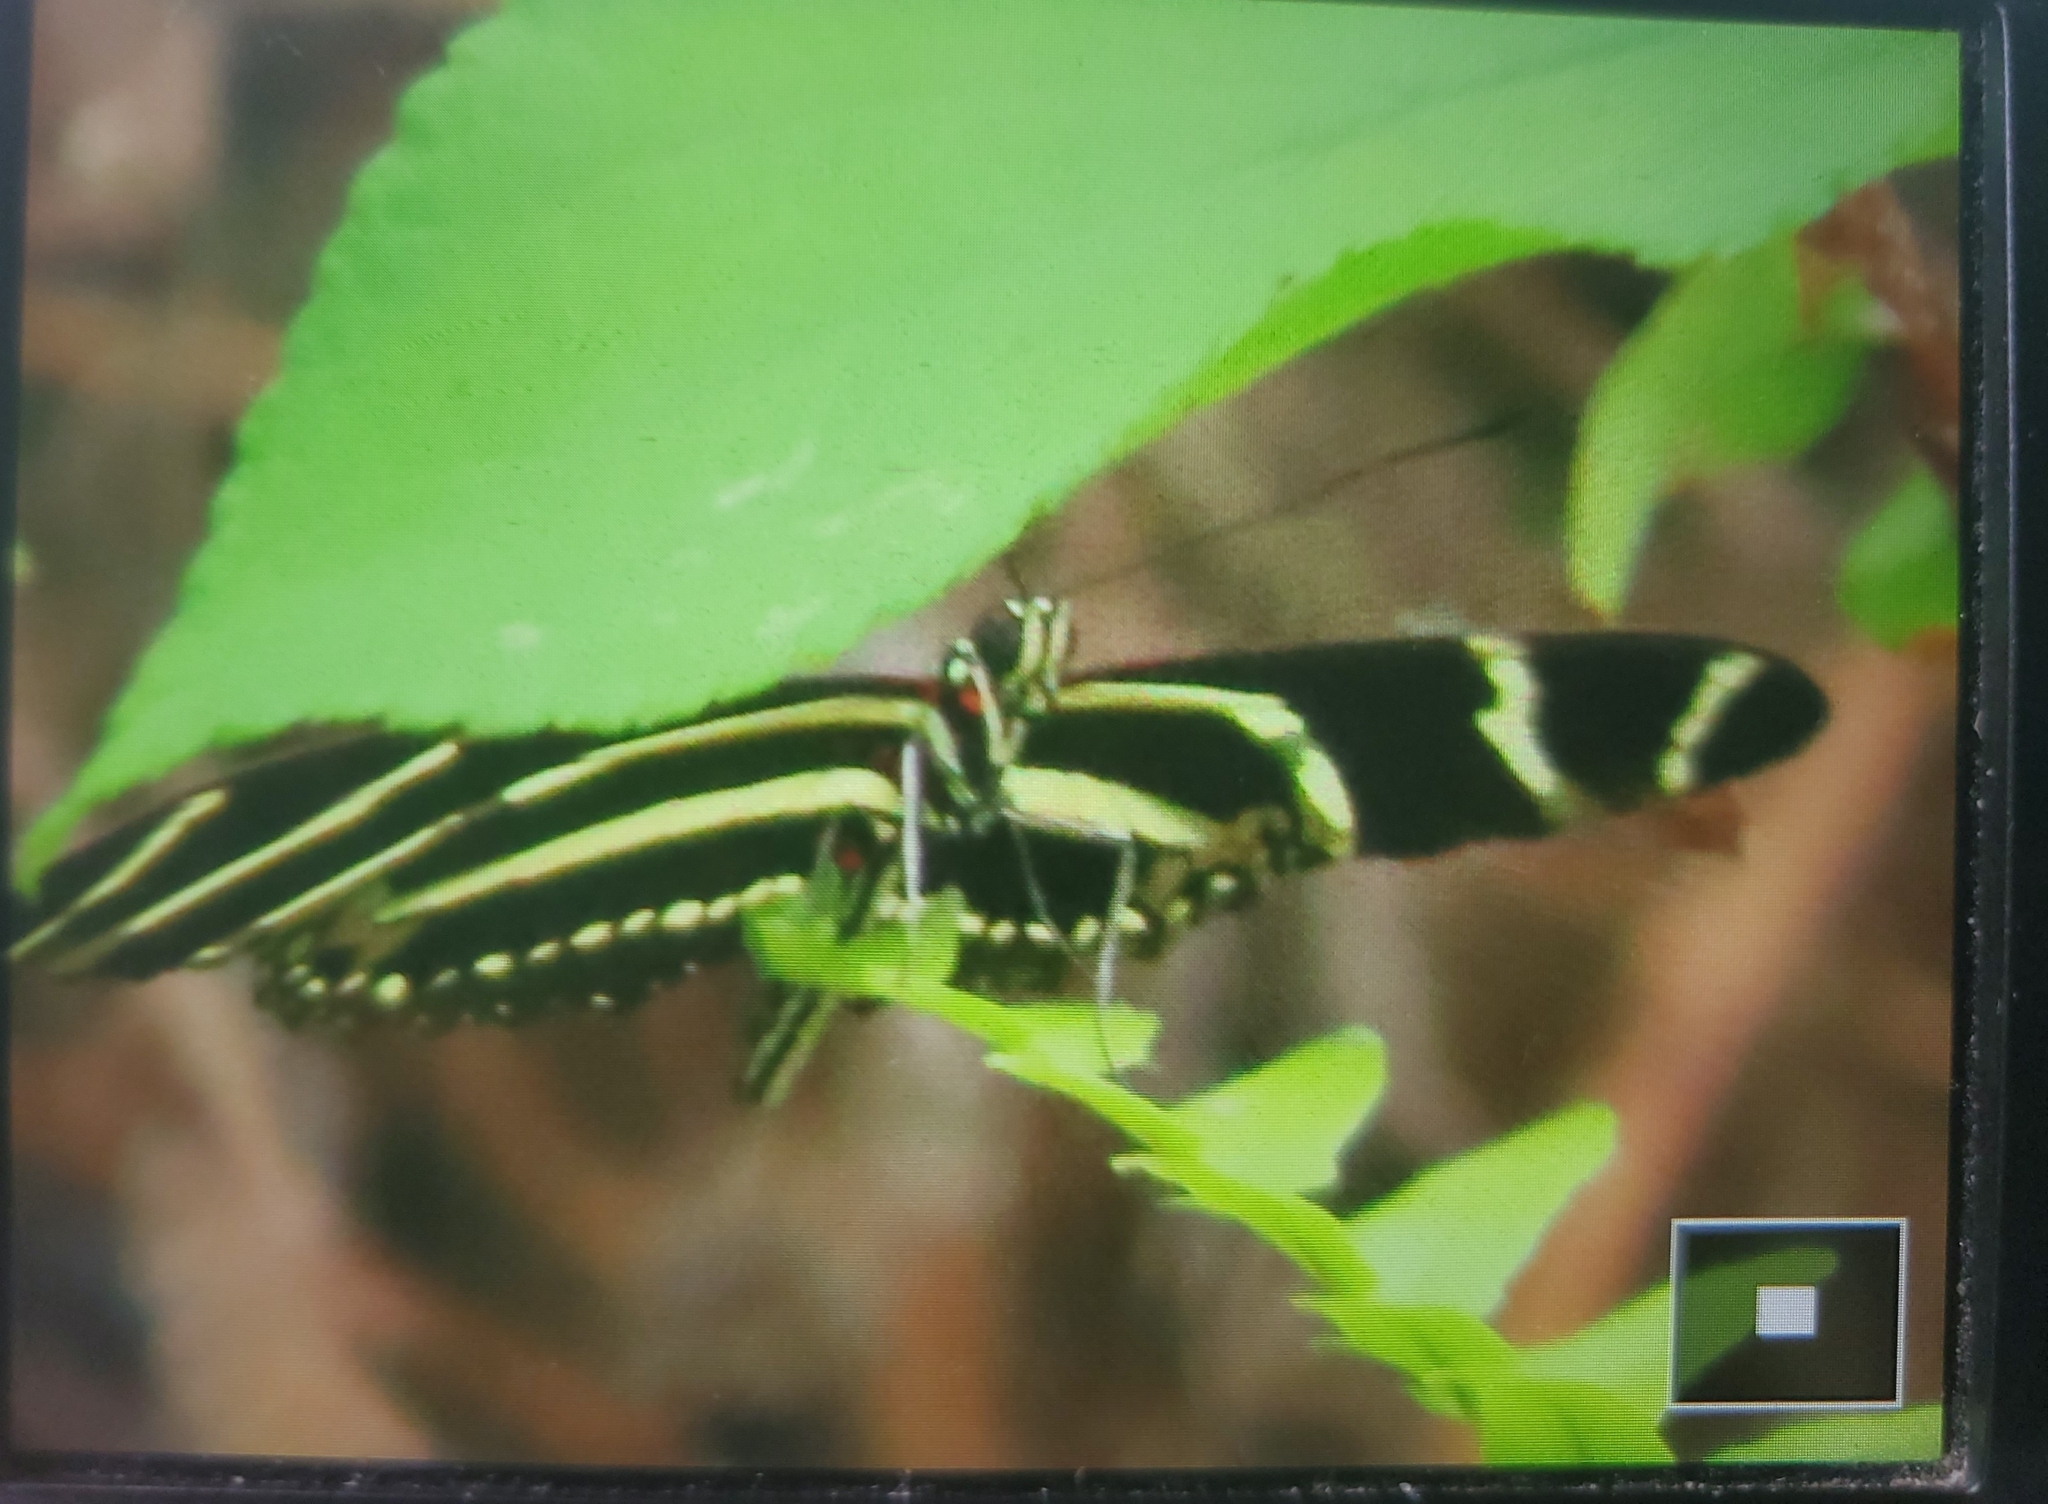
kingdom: Animalia
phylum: Arthropoda
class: Insecta
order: Lepidoptera
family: Nymphalidae
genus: Heliconius
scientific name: Heliconius charithonia
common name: Zebra long wing
